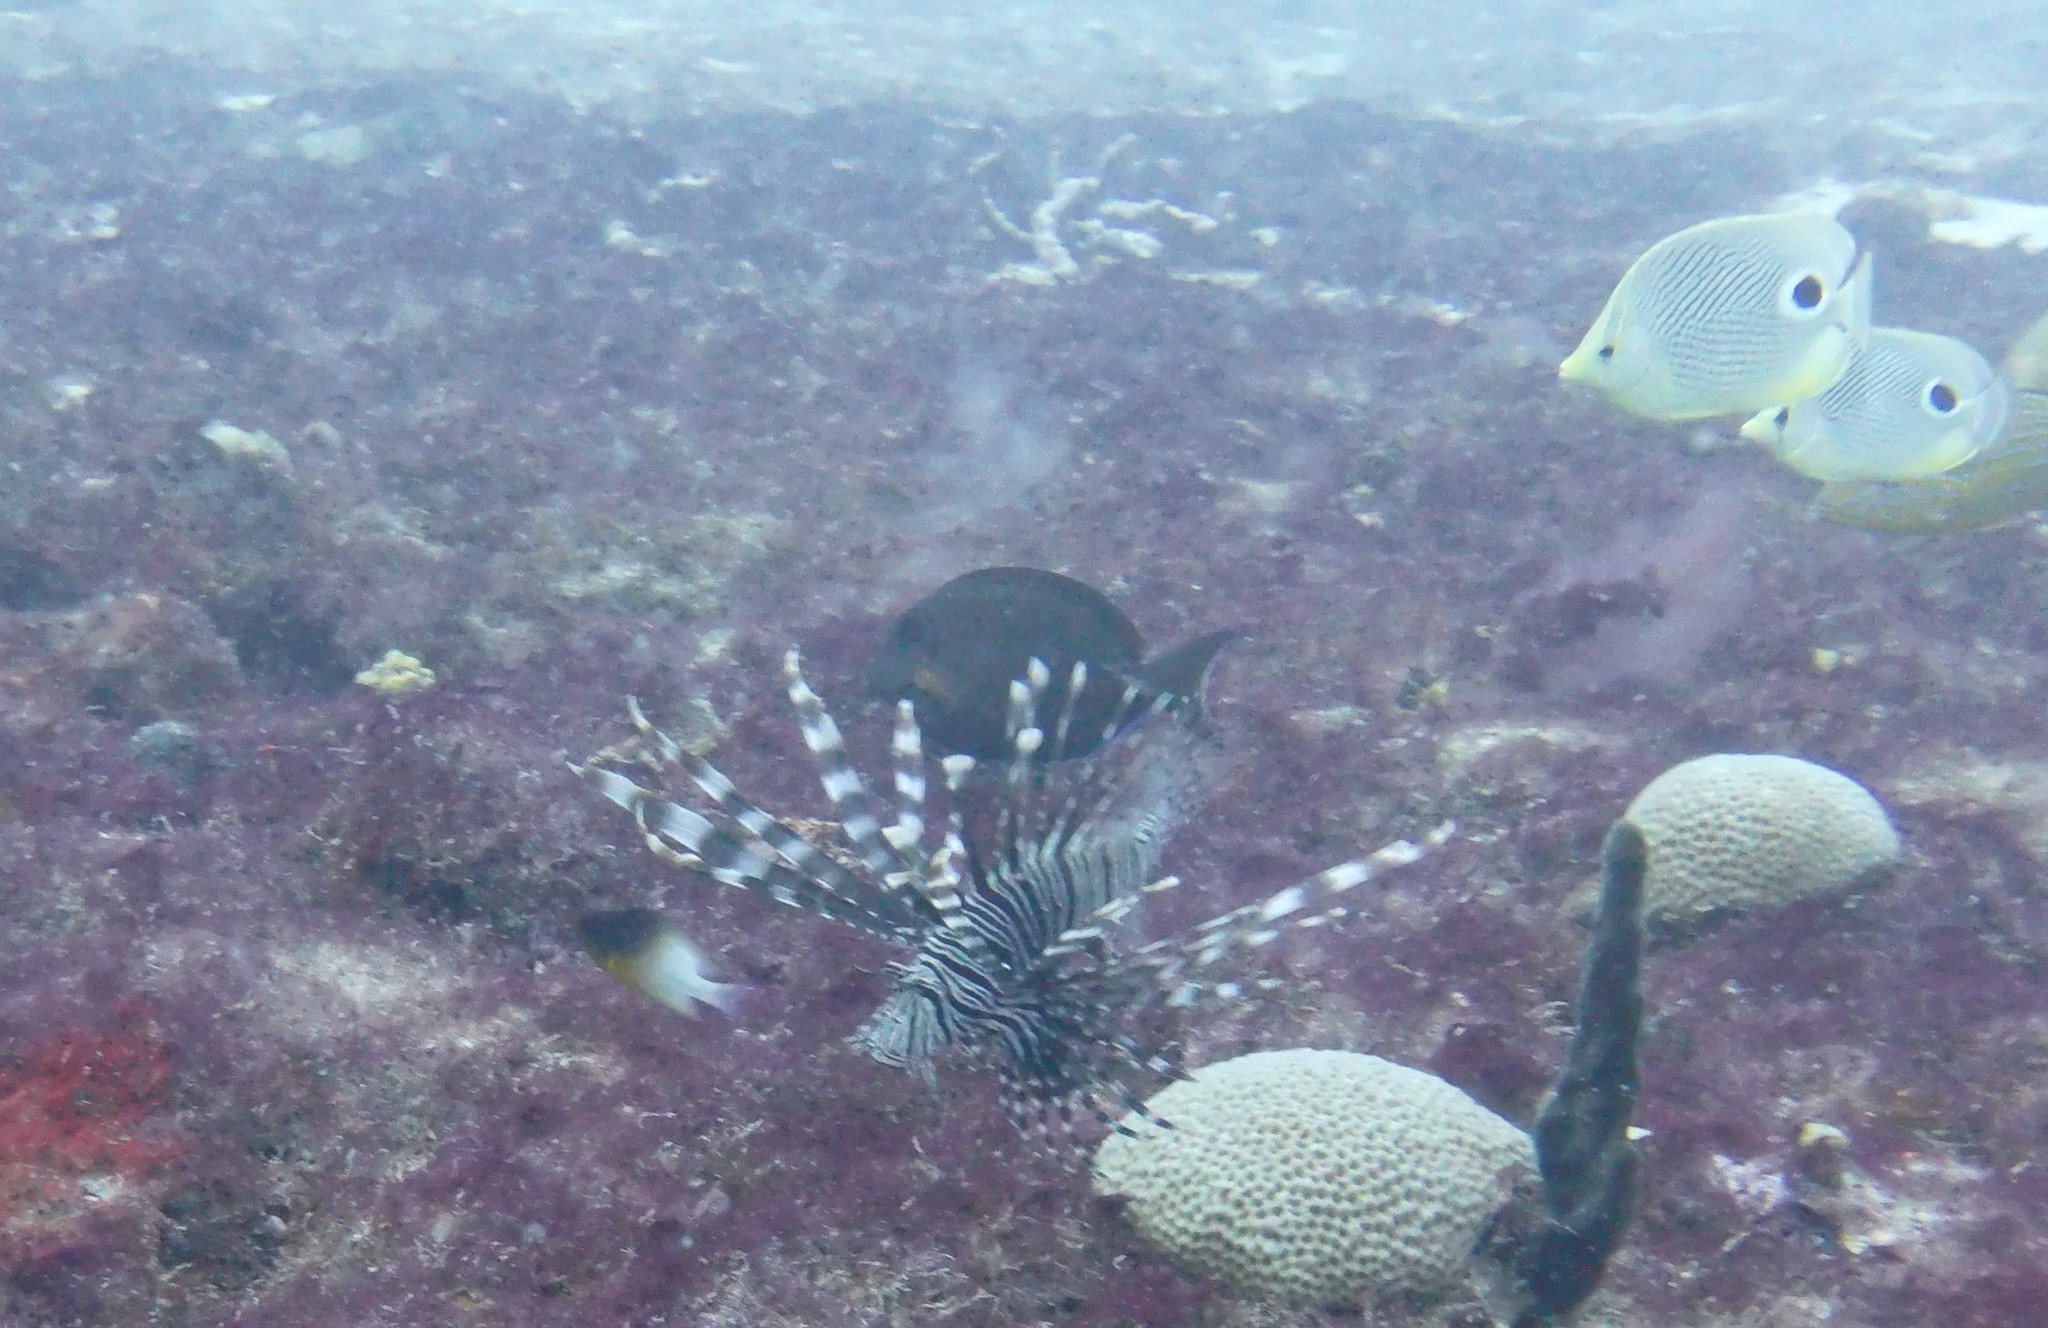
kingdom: Animalia
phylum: Chordata
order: Perciformes
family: Pomacentridae
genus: Stegastes
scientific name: Stegastes partitus
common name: Bicolor damselfish
